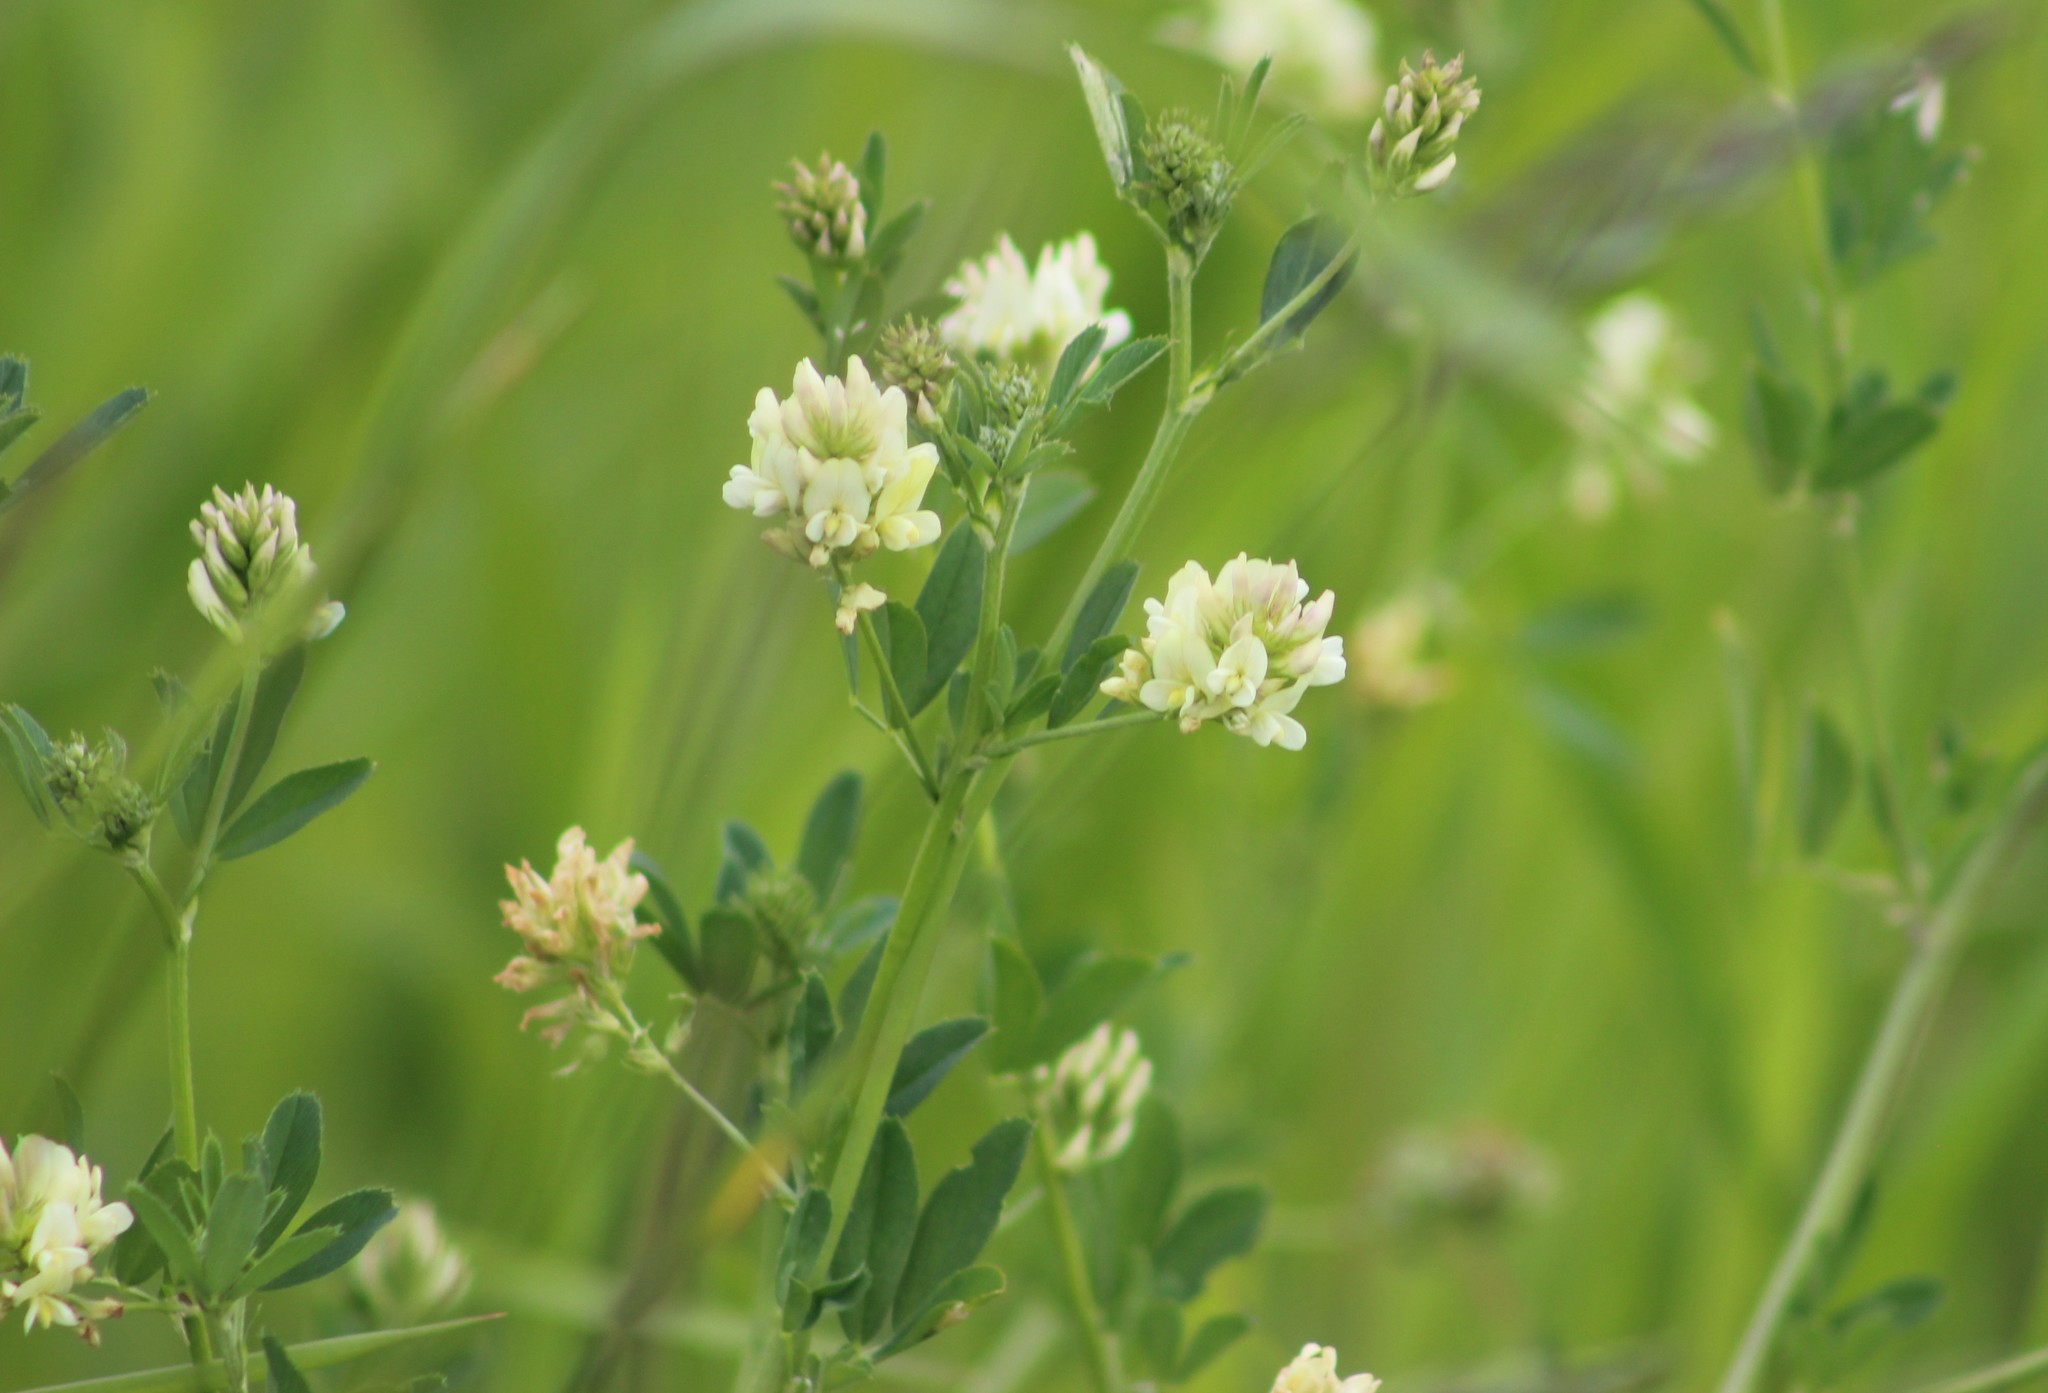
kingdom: Plantae
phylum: Tracheophyta
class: Magnoliopsida
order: Fabales
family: Fabaceae
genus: Medicago
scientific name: Medicago varia
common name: Sand lucerne
